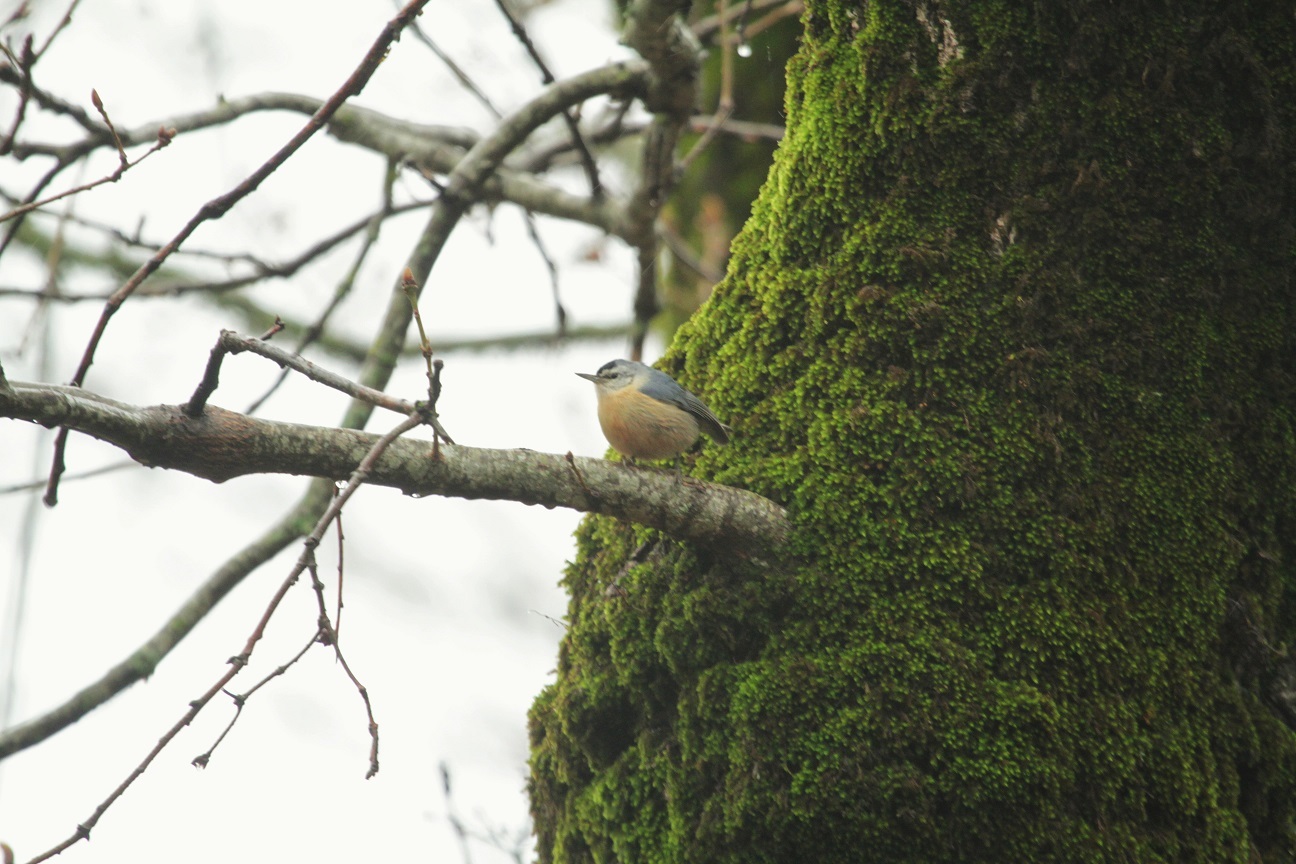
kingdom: Animalia
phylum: Chordata
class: Aves
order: Passeriformes
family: Sittidae
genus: Sitta
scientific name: Sitta ledanti
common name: Algerian nuthatch
